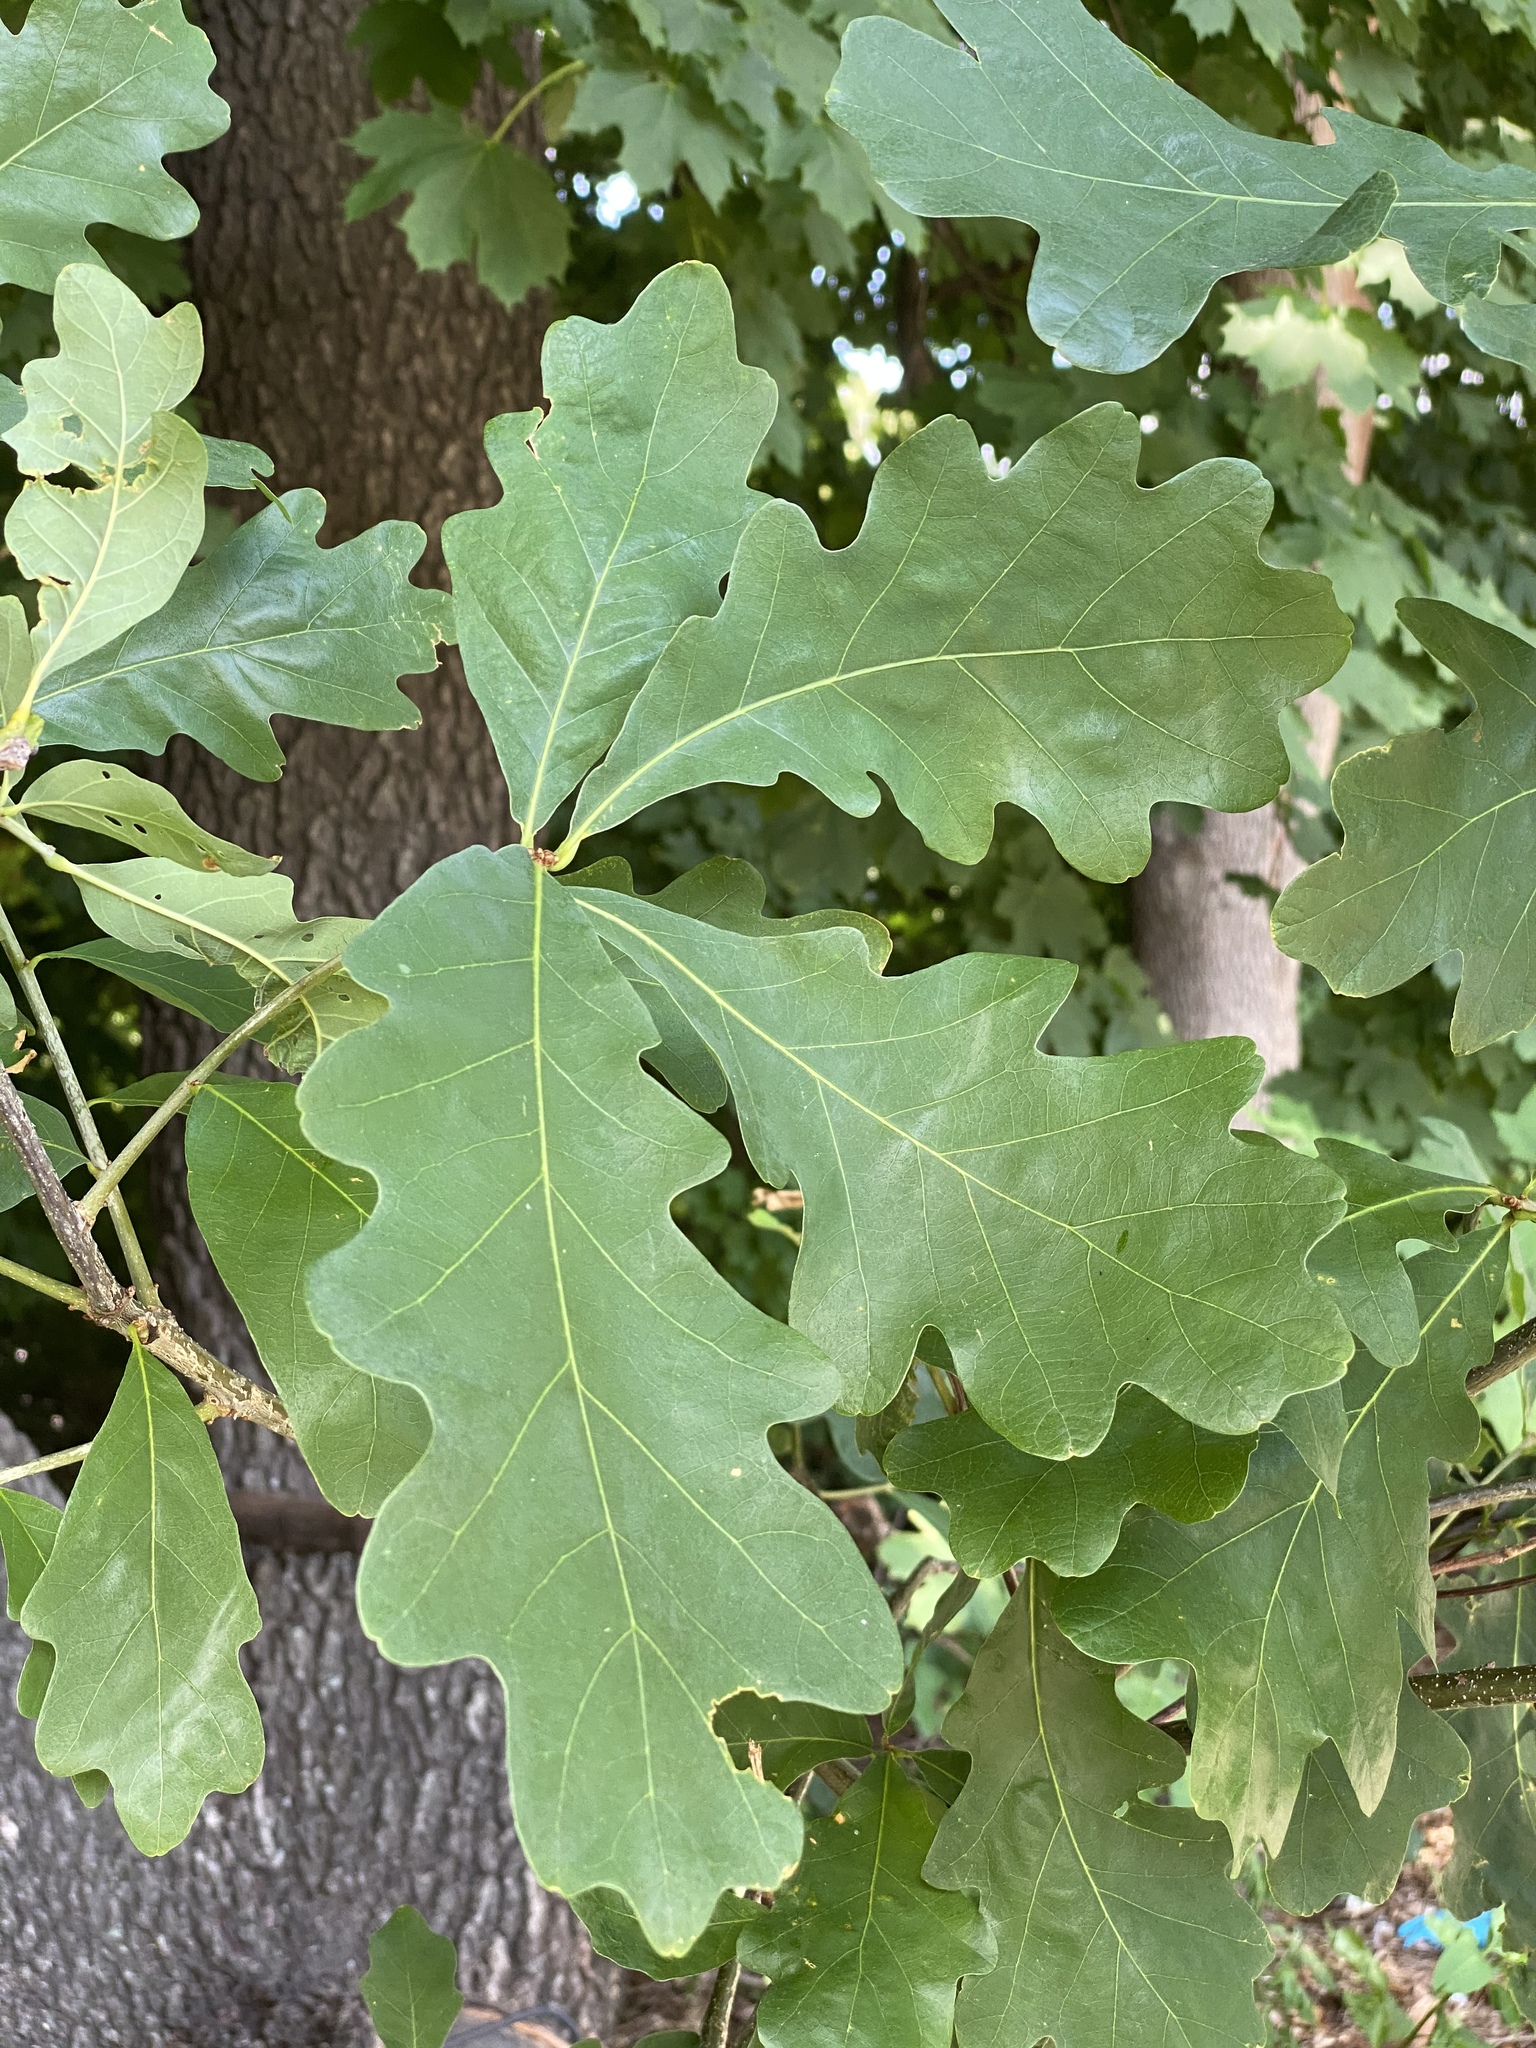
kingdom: Plantae
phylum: Tracheophyta
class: Magnoliopsida
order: Fagales
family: Fagaceae
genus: Quercus
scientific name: Quercus alba
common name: White oak
